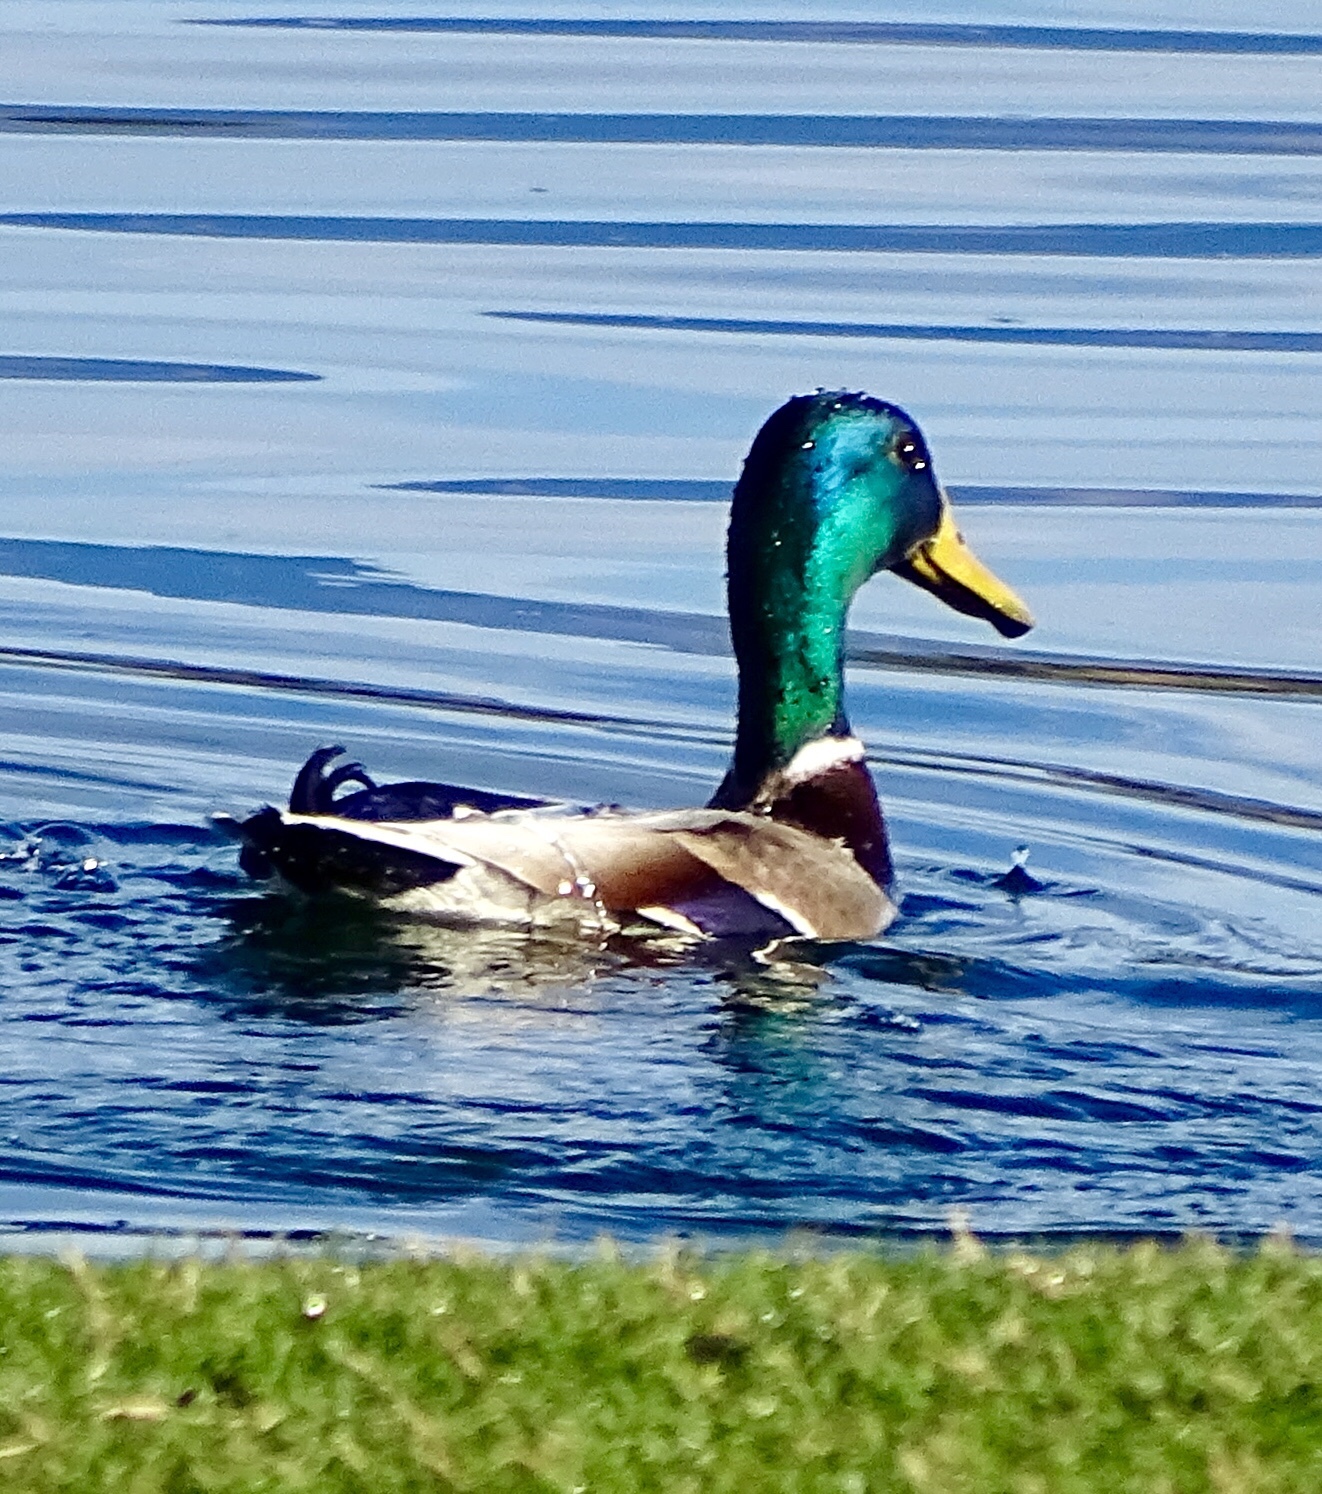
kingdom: Animalia
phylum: Chordata
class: Aves
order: Anseriformes
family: Anatidae
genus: Anas
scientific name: Anas platyrhynchos
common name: Mallard
